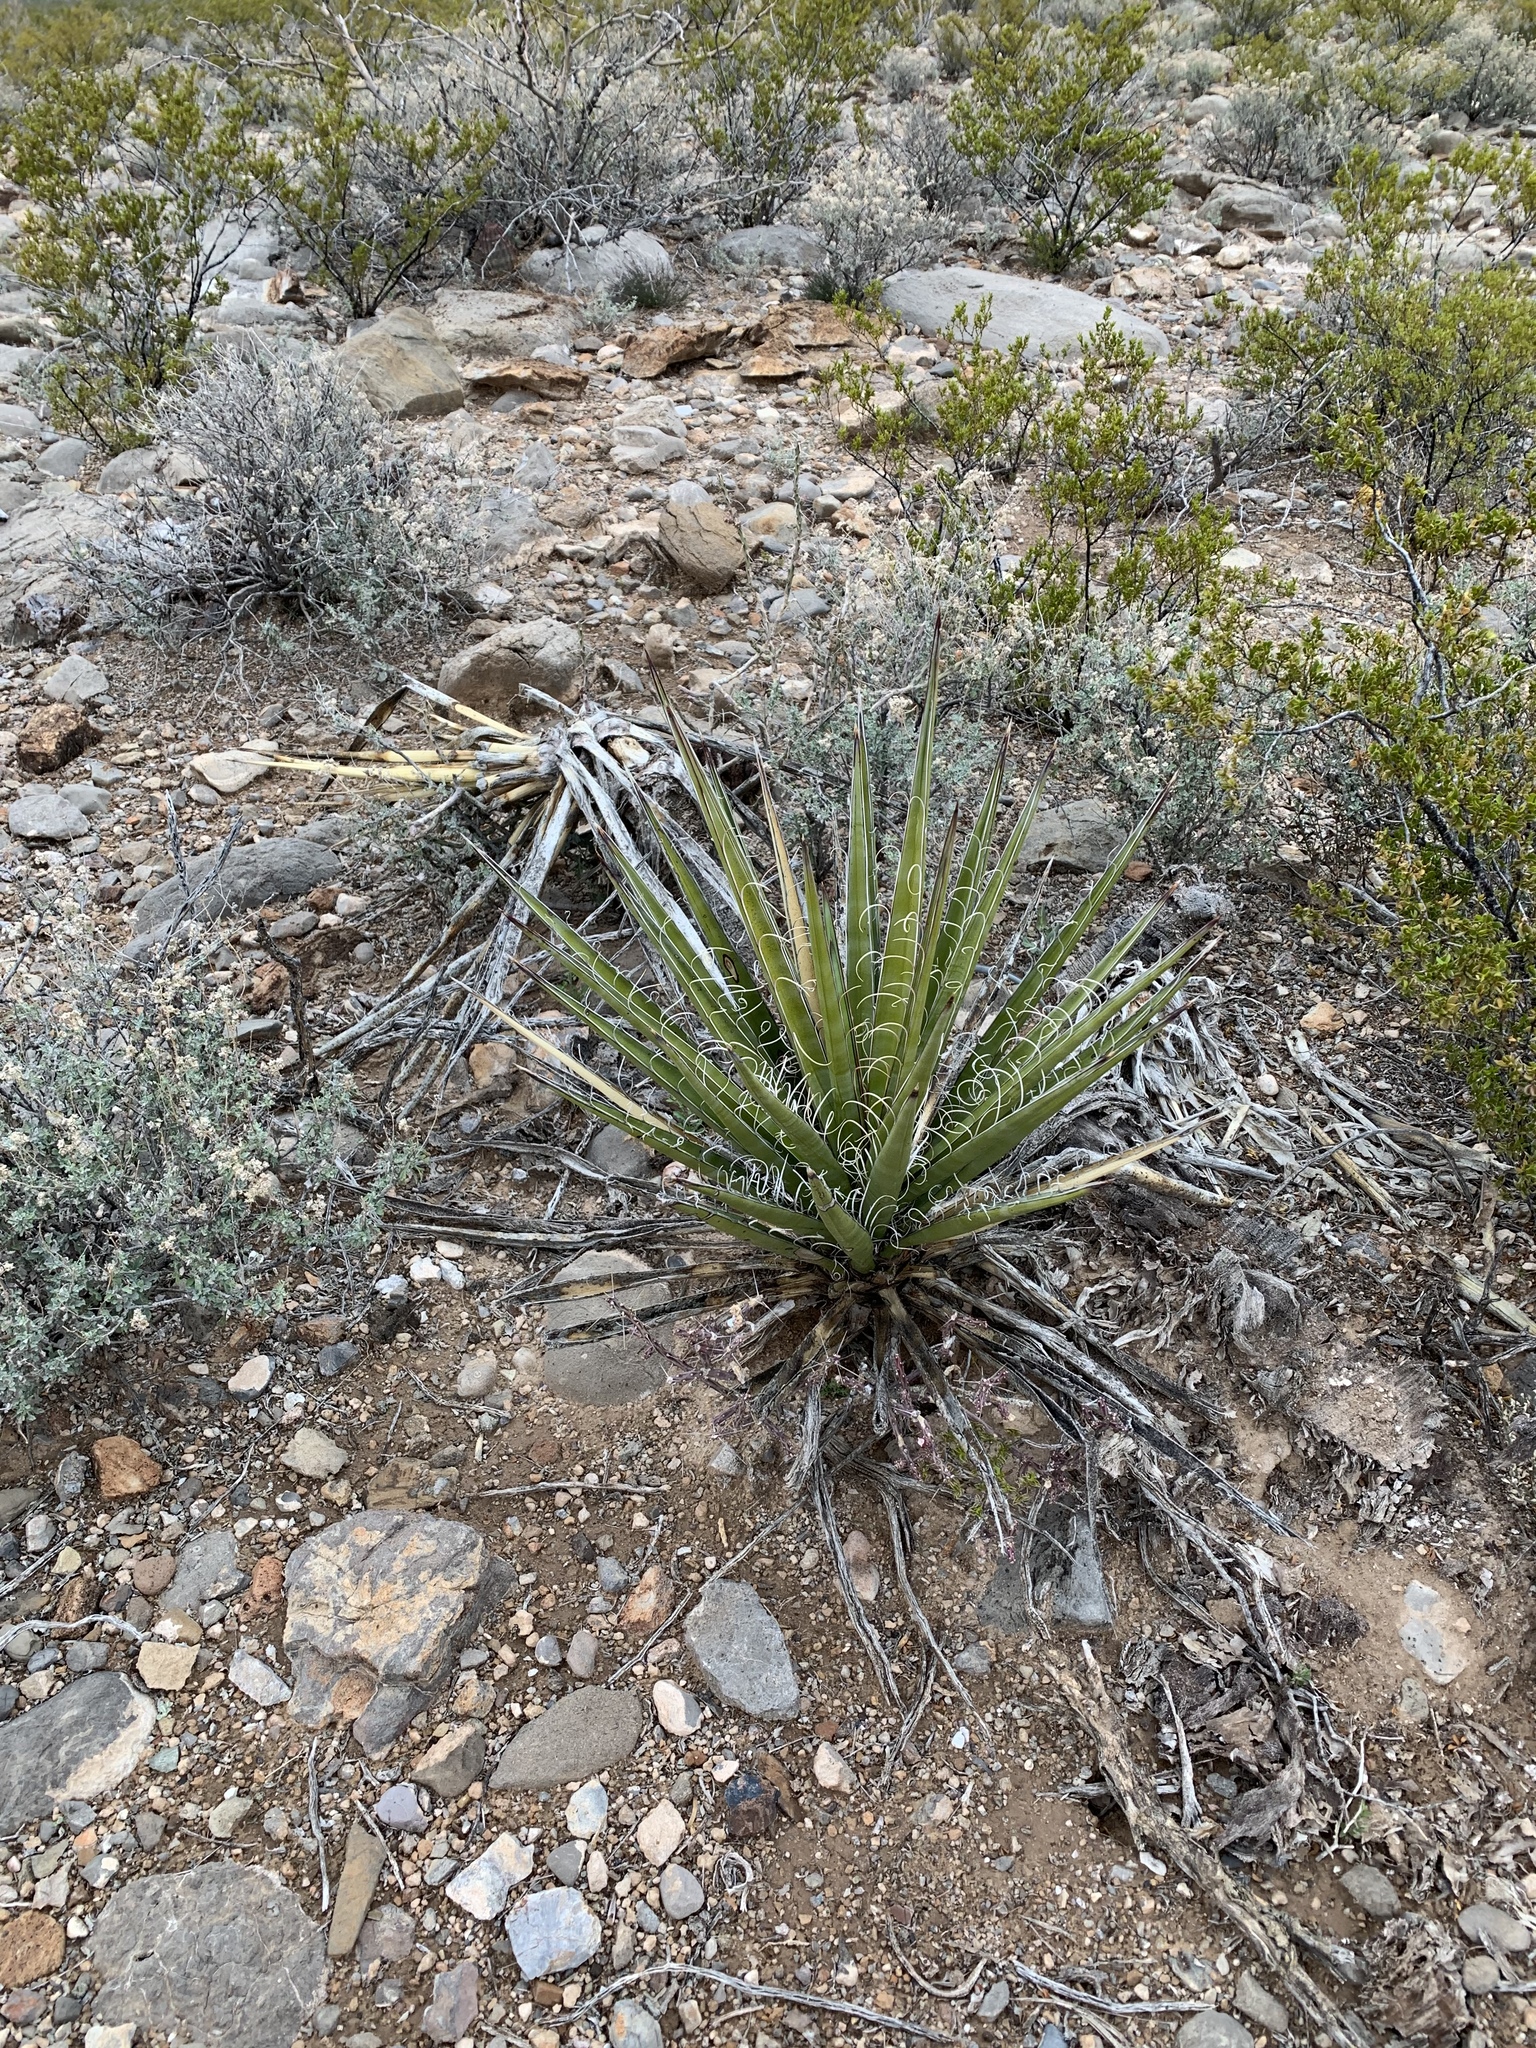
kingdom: Plantae
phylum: Tracheophyta
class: Liliopsida
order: Asparagales
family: Asparagaceae
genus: Yucca
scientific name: Yucca baccata
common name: Banana yucca
